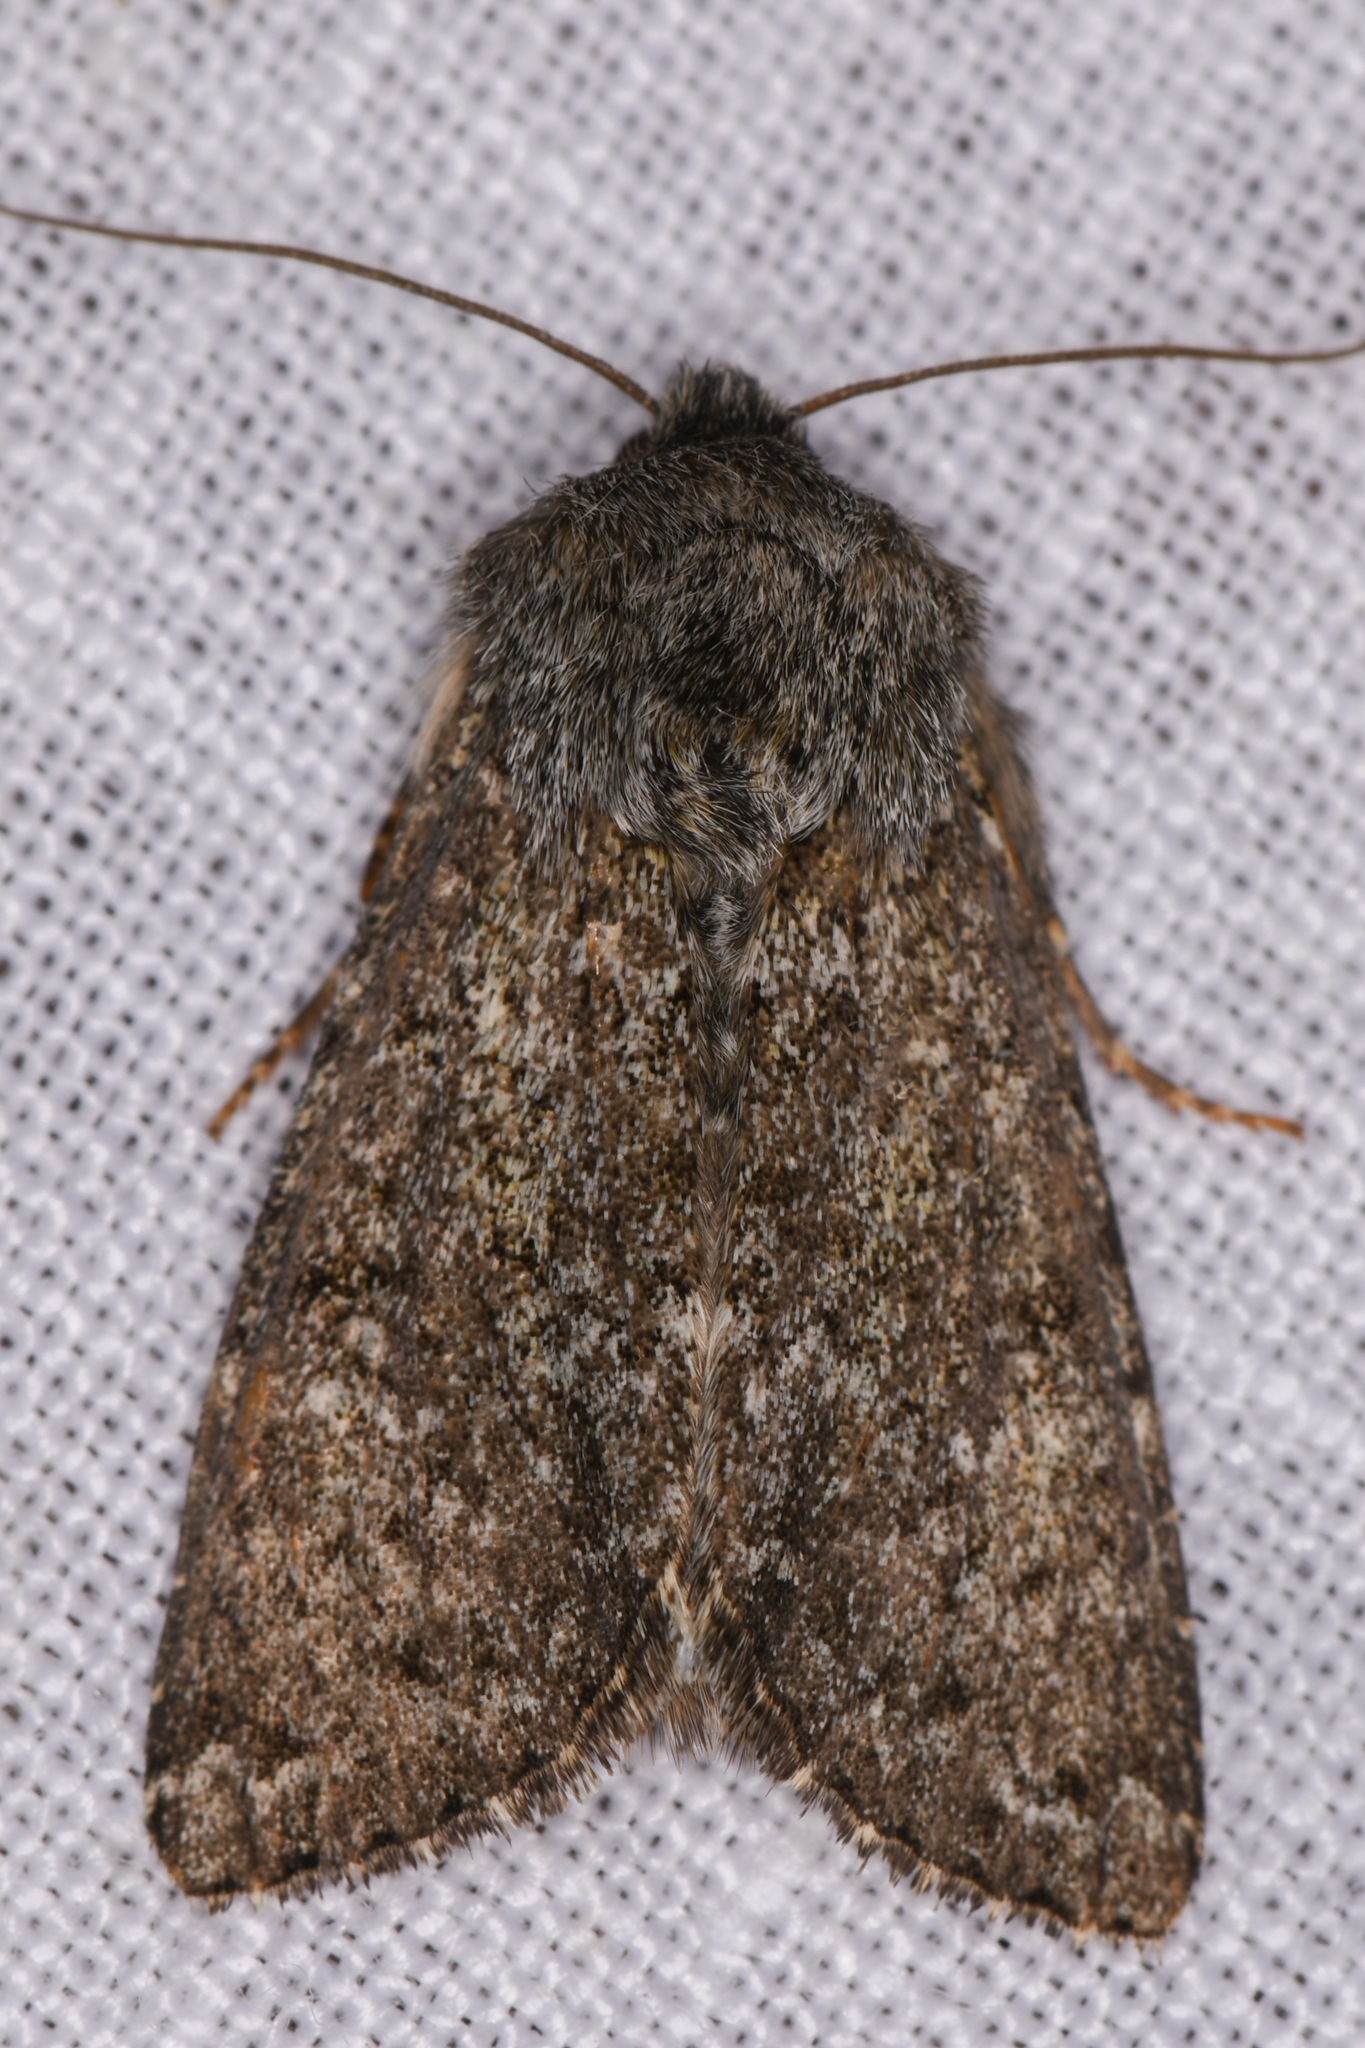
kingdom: Animalia
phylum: Arthropoda
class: Insecta
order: Lepidoptera
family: Noctuidae
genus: Apamea
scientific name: Apamea zeta
